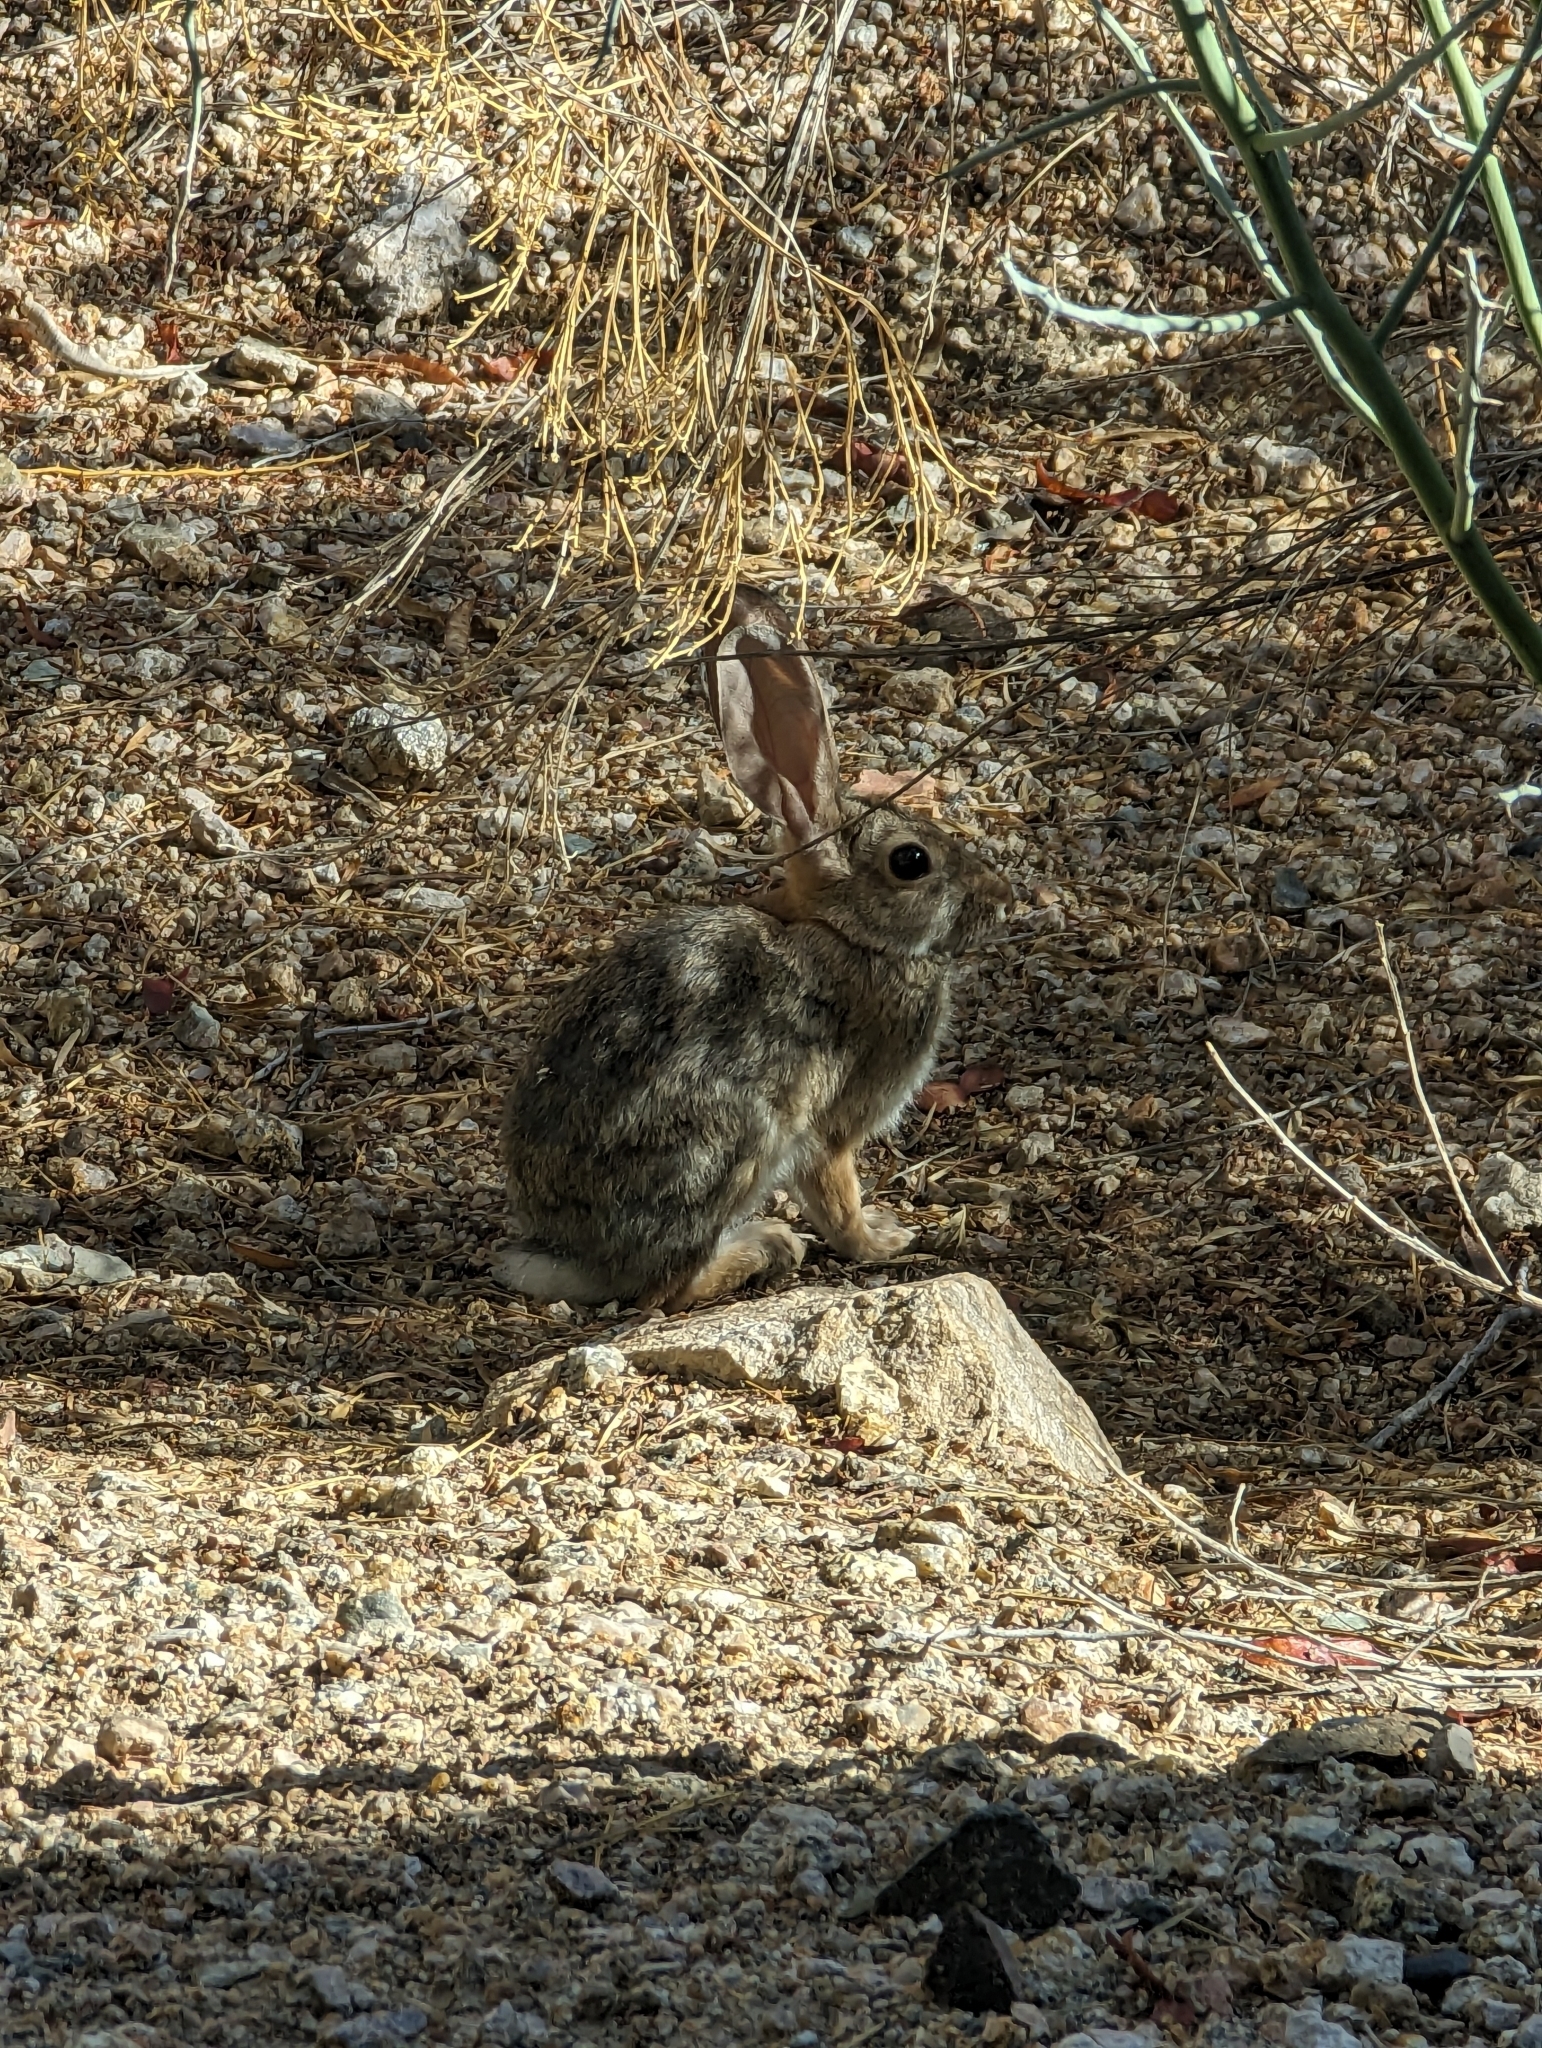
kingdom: Animalia
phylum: Chordata
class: Mammalia
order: Lagomorpha
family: Leporidae
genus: Sylvilagus
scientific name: Sylvilagus audubonii
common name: Desert cottontail
